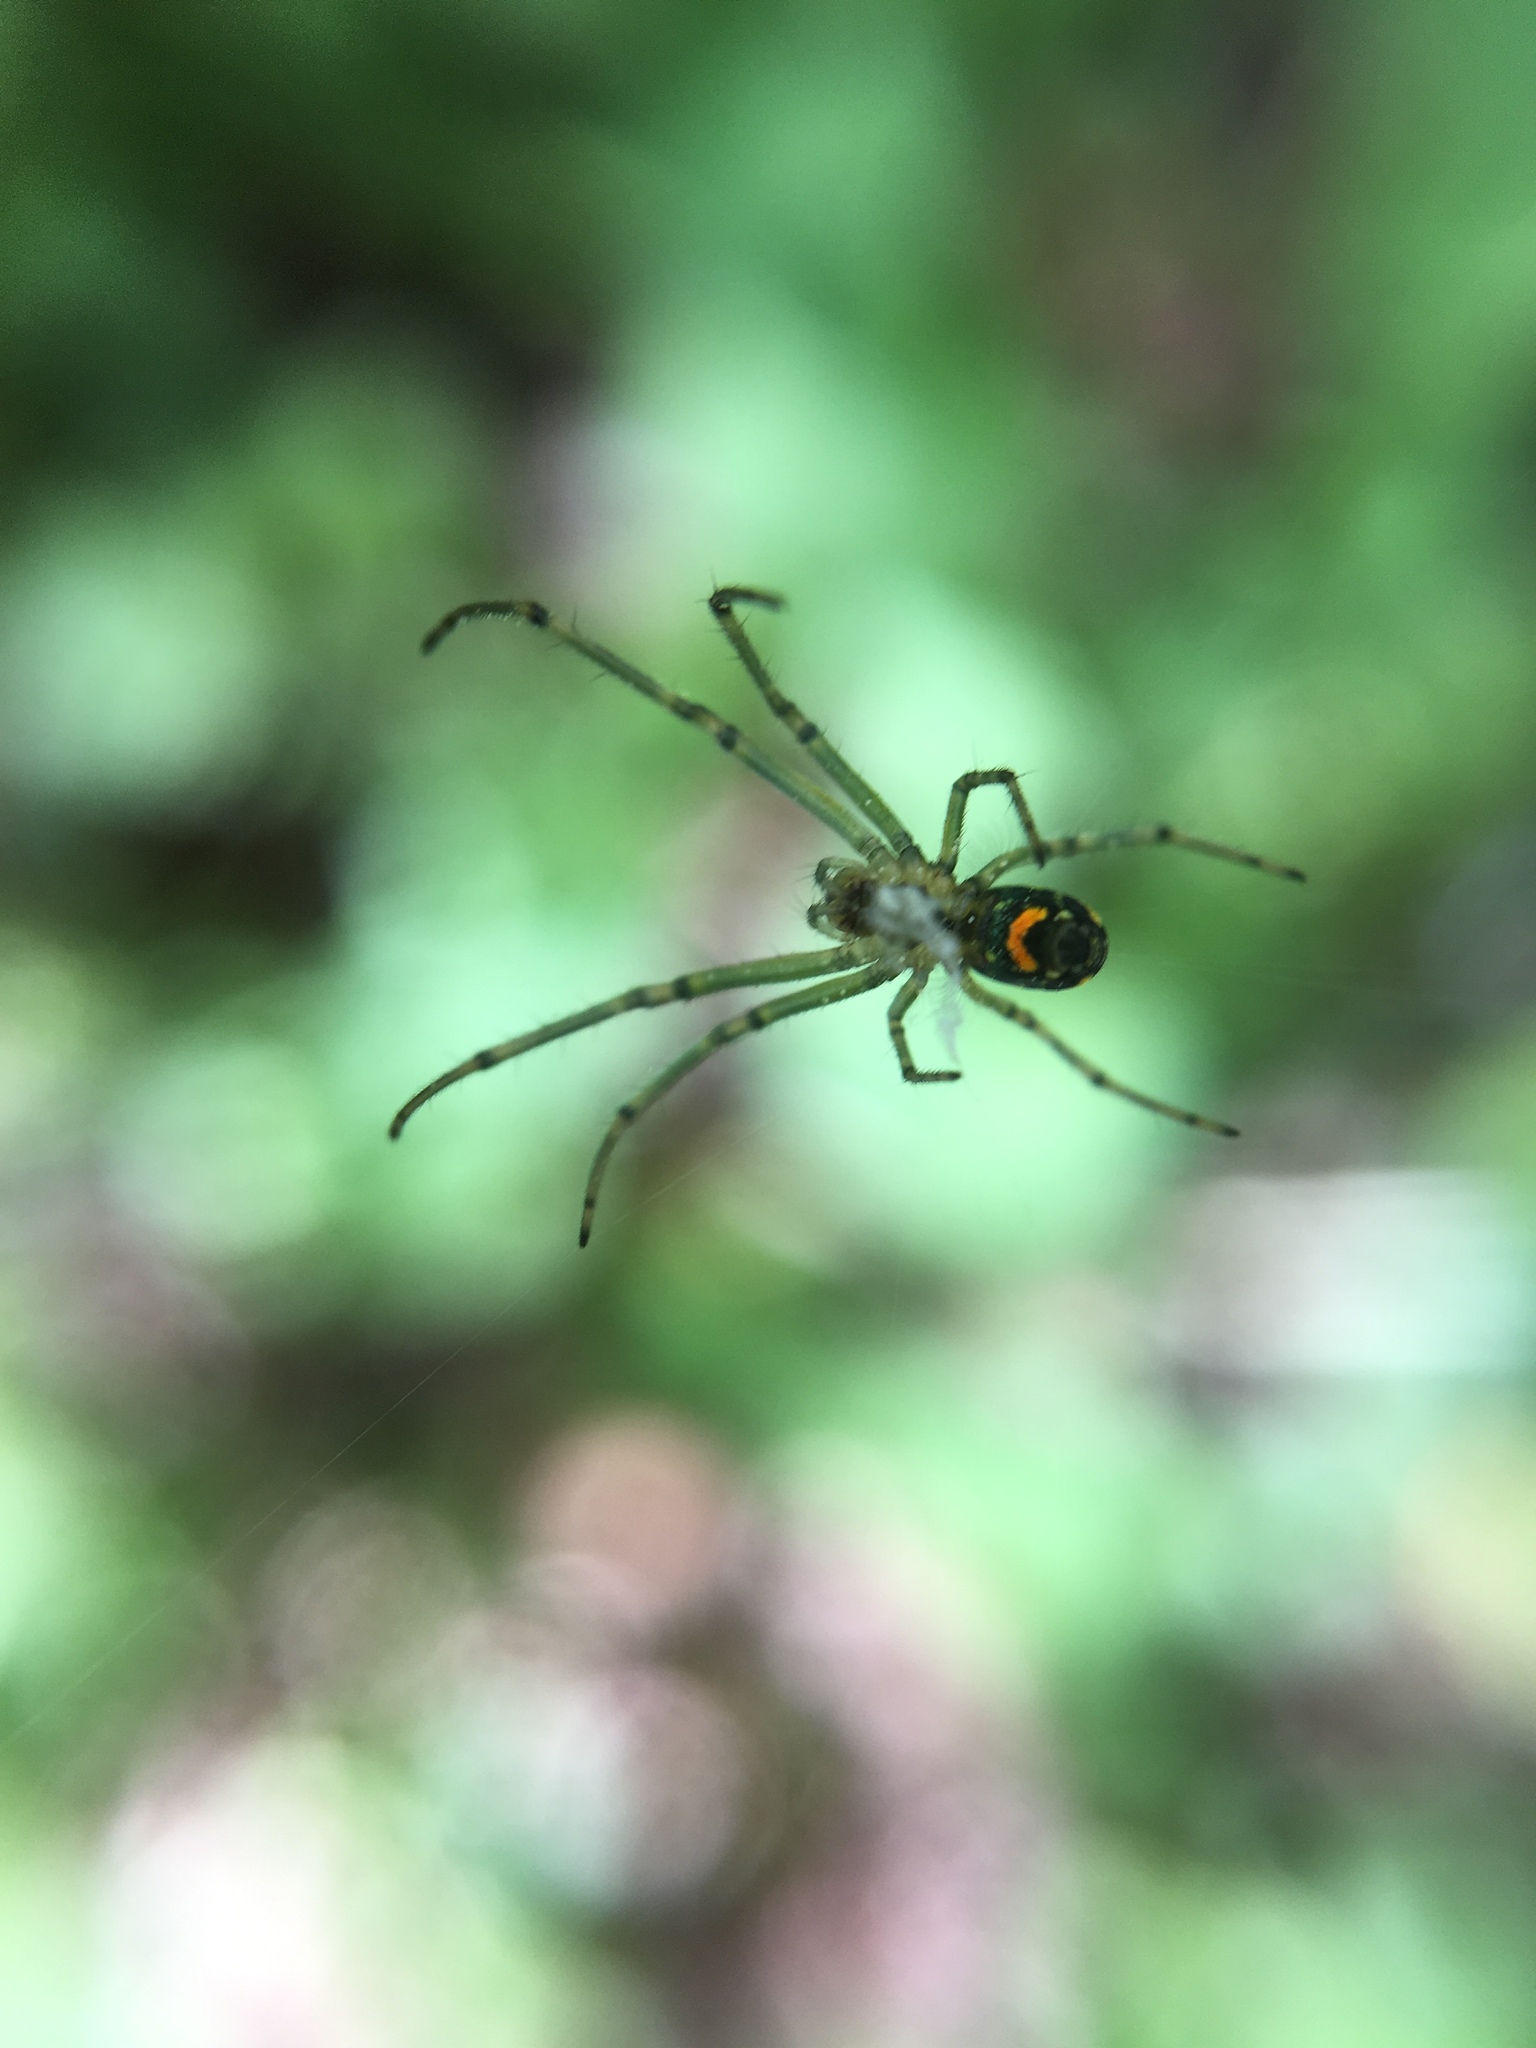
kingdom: Animalia
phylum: Arthropoda
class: Arachnida
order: Araneae
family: Tetragnathidae
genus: Leucauge
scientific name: Leucauge
